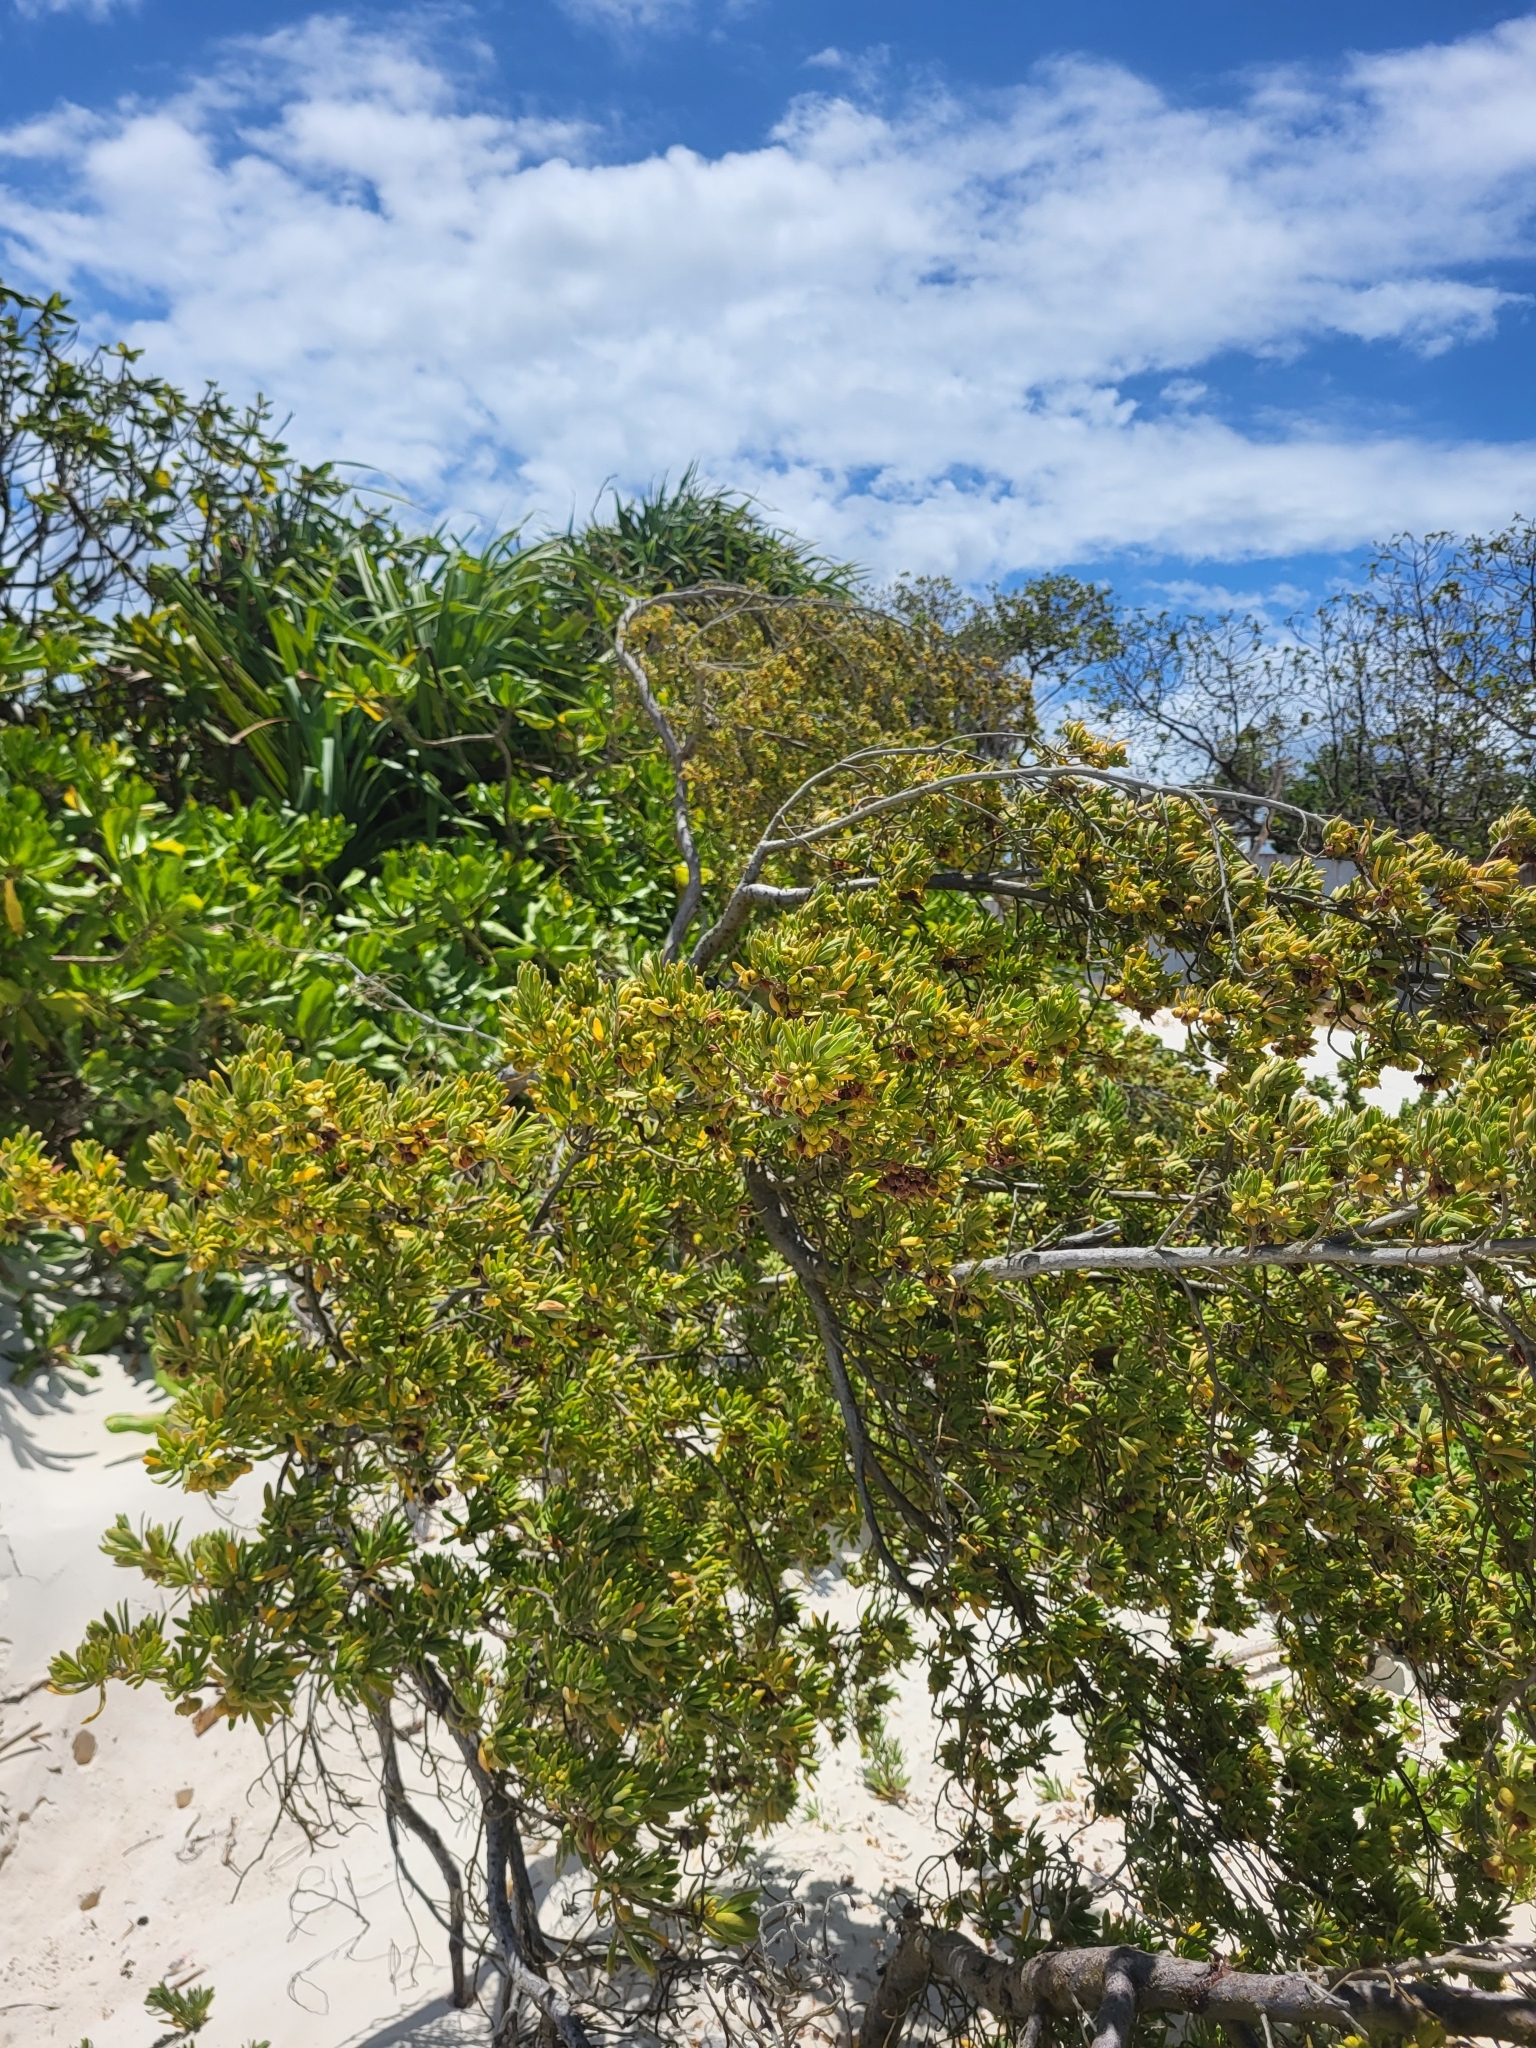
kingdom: Plantae
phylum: Tracheophyta
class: Magnoliopsida
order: Fabales
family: Surianaceae
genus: Suriana
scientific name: Suriana maritima
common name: Bay-cedar
